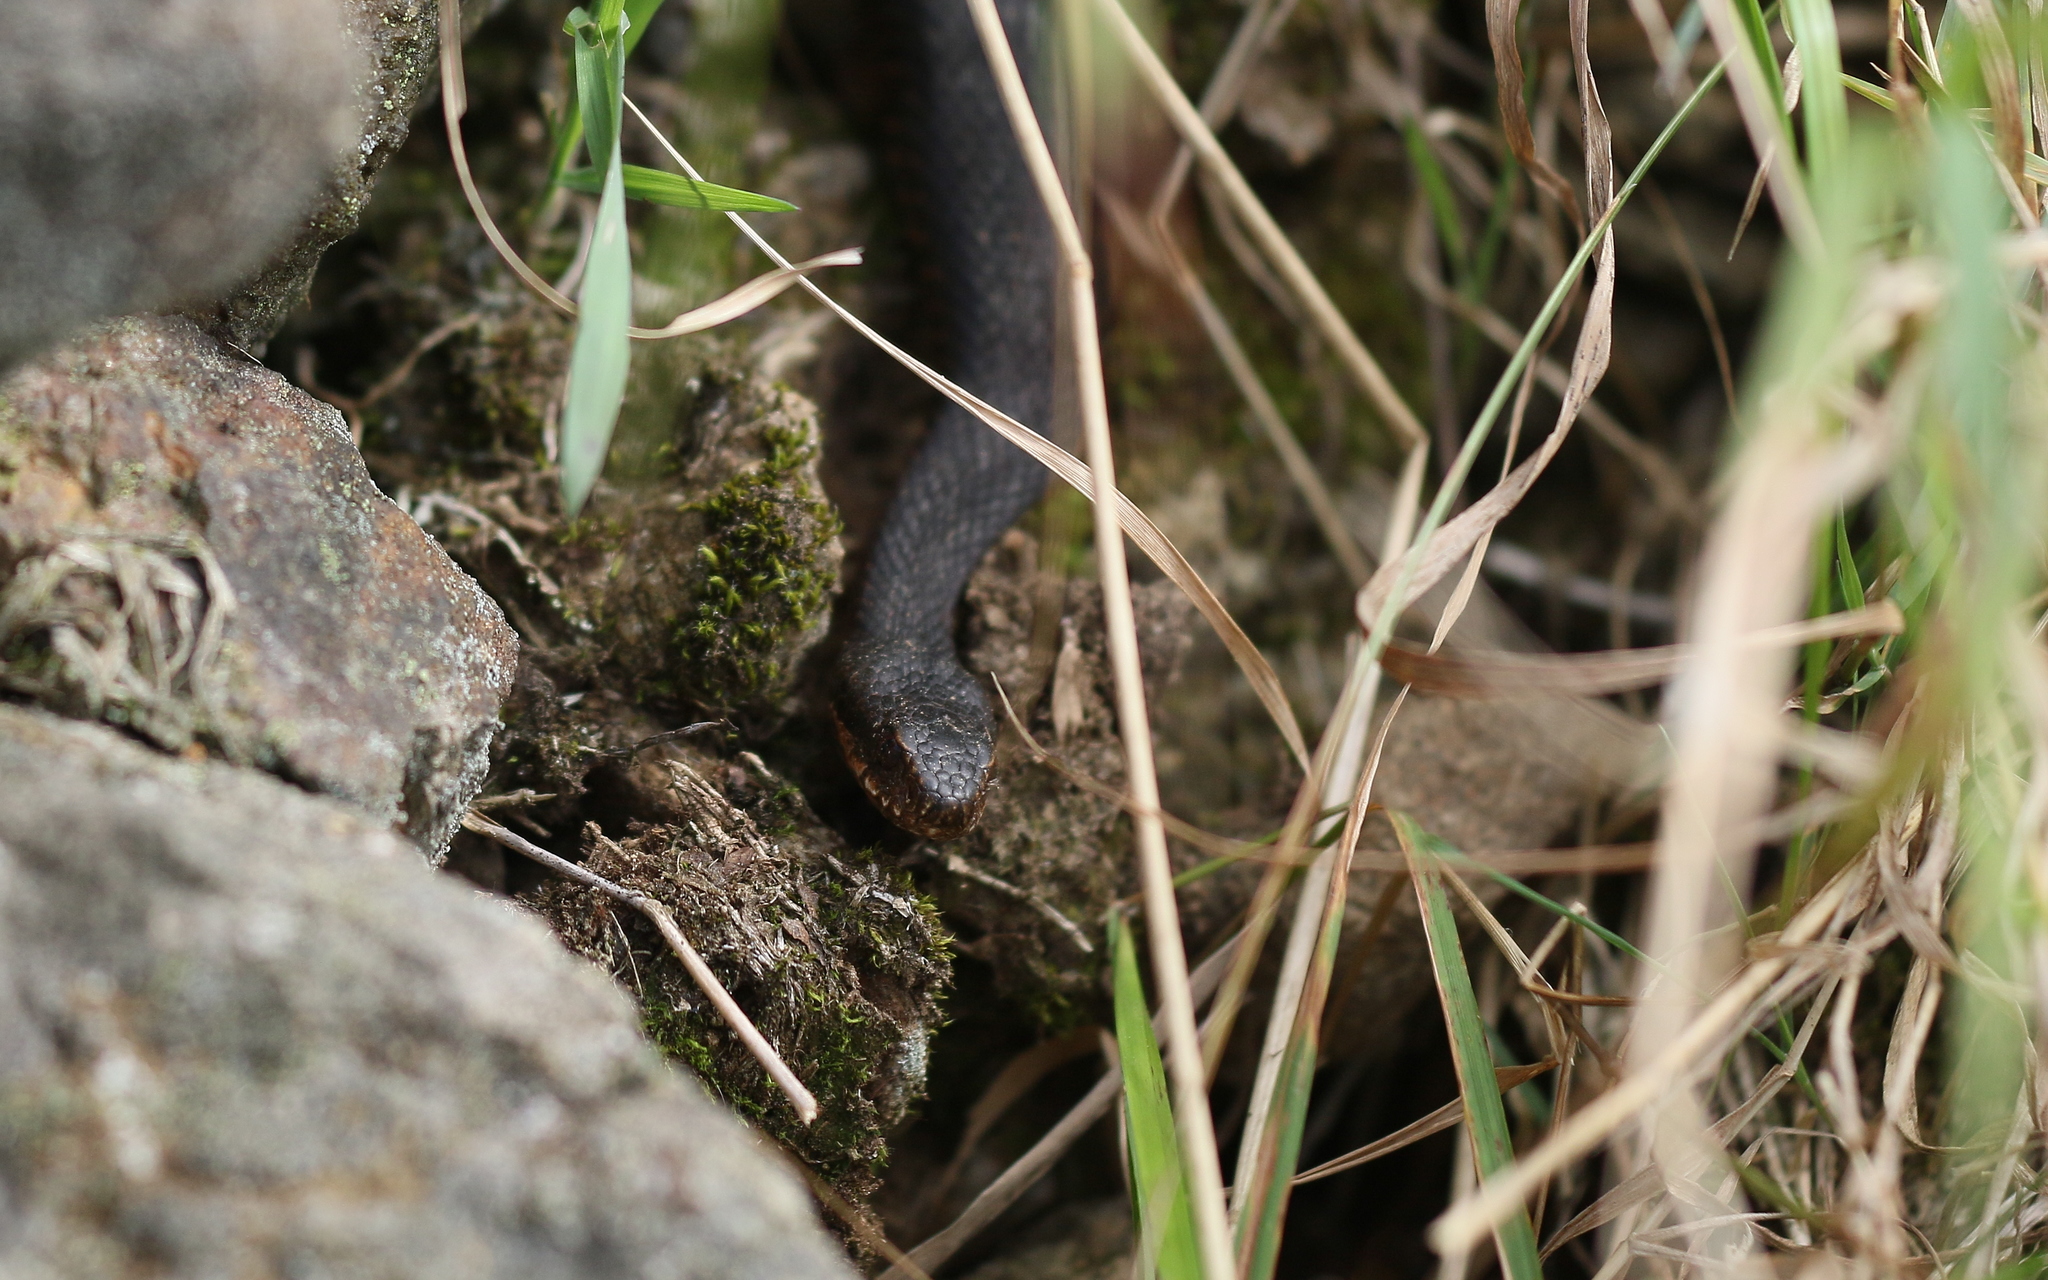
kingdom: Animalia
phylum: Chordata
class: Squamata
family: Viperidae
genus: Vipera
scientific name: Vipera berus
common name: Adder
